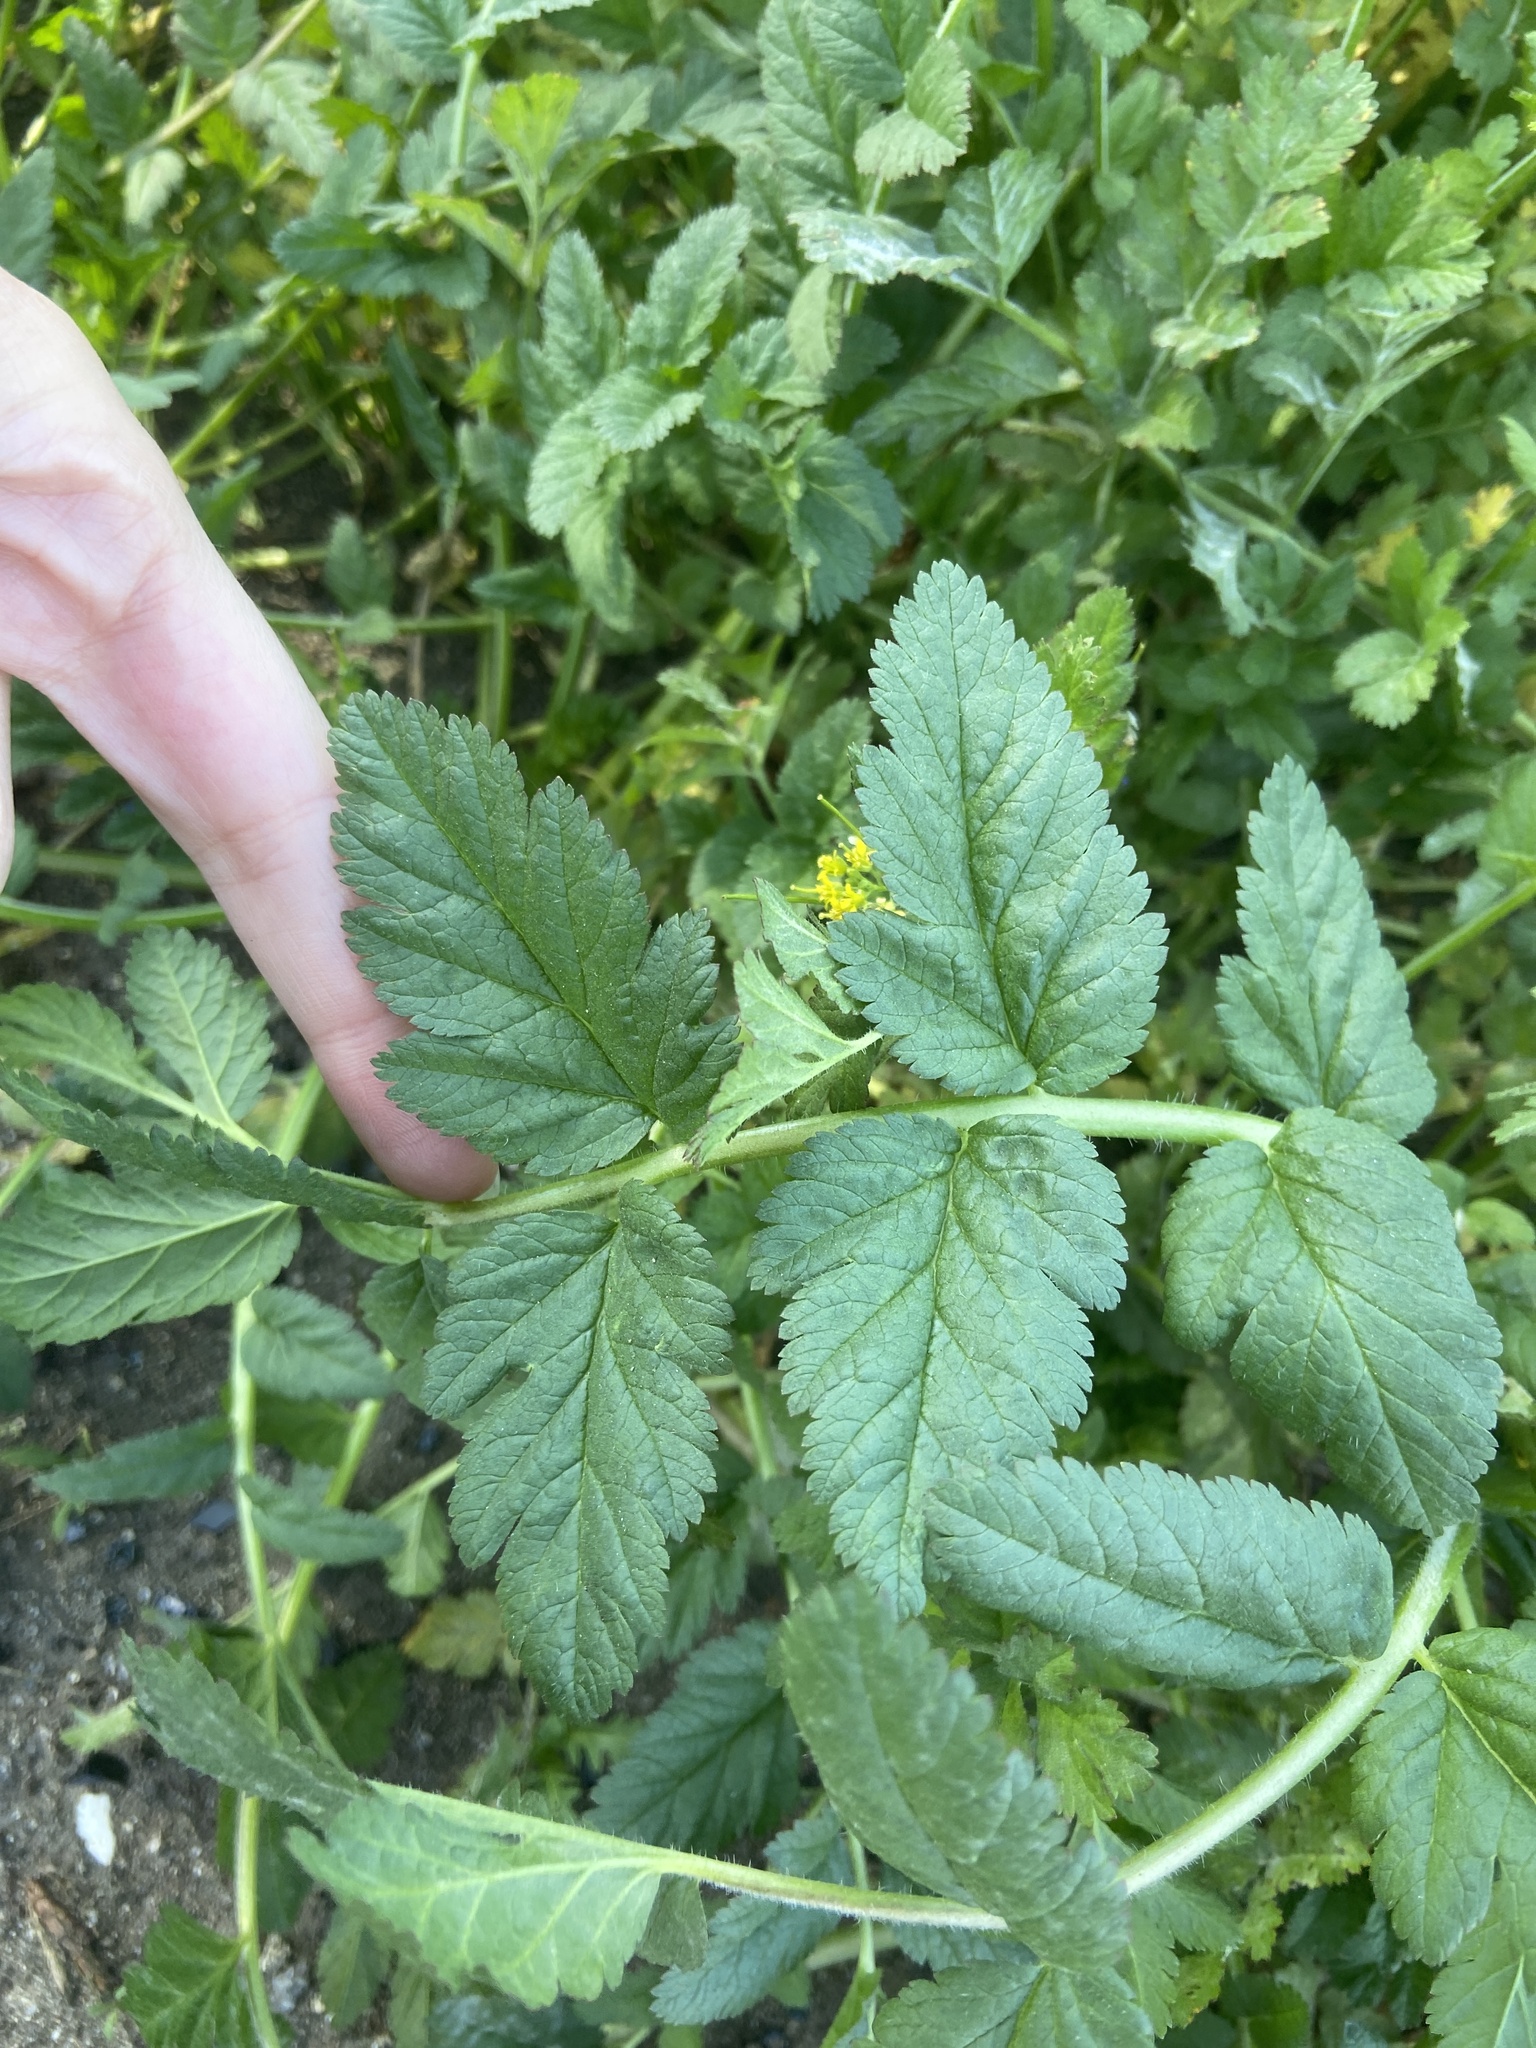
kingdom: Plantae
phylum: Tracheophyta
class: Magnoliopsida
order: Geraniales
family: Geraniaceae
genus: Erodium
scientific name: Erodium moschatum
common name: Musk stork's-bill
